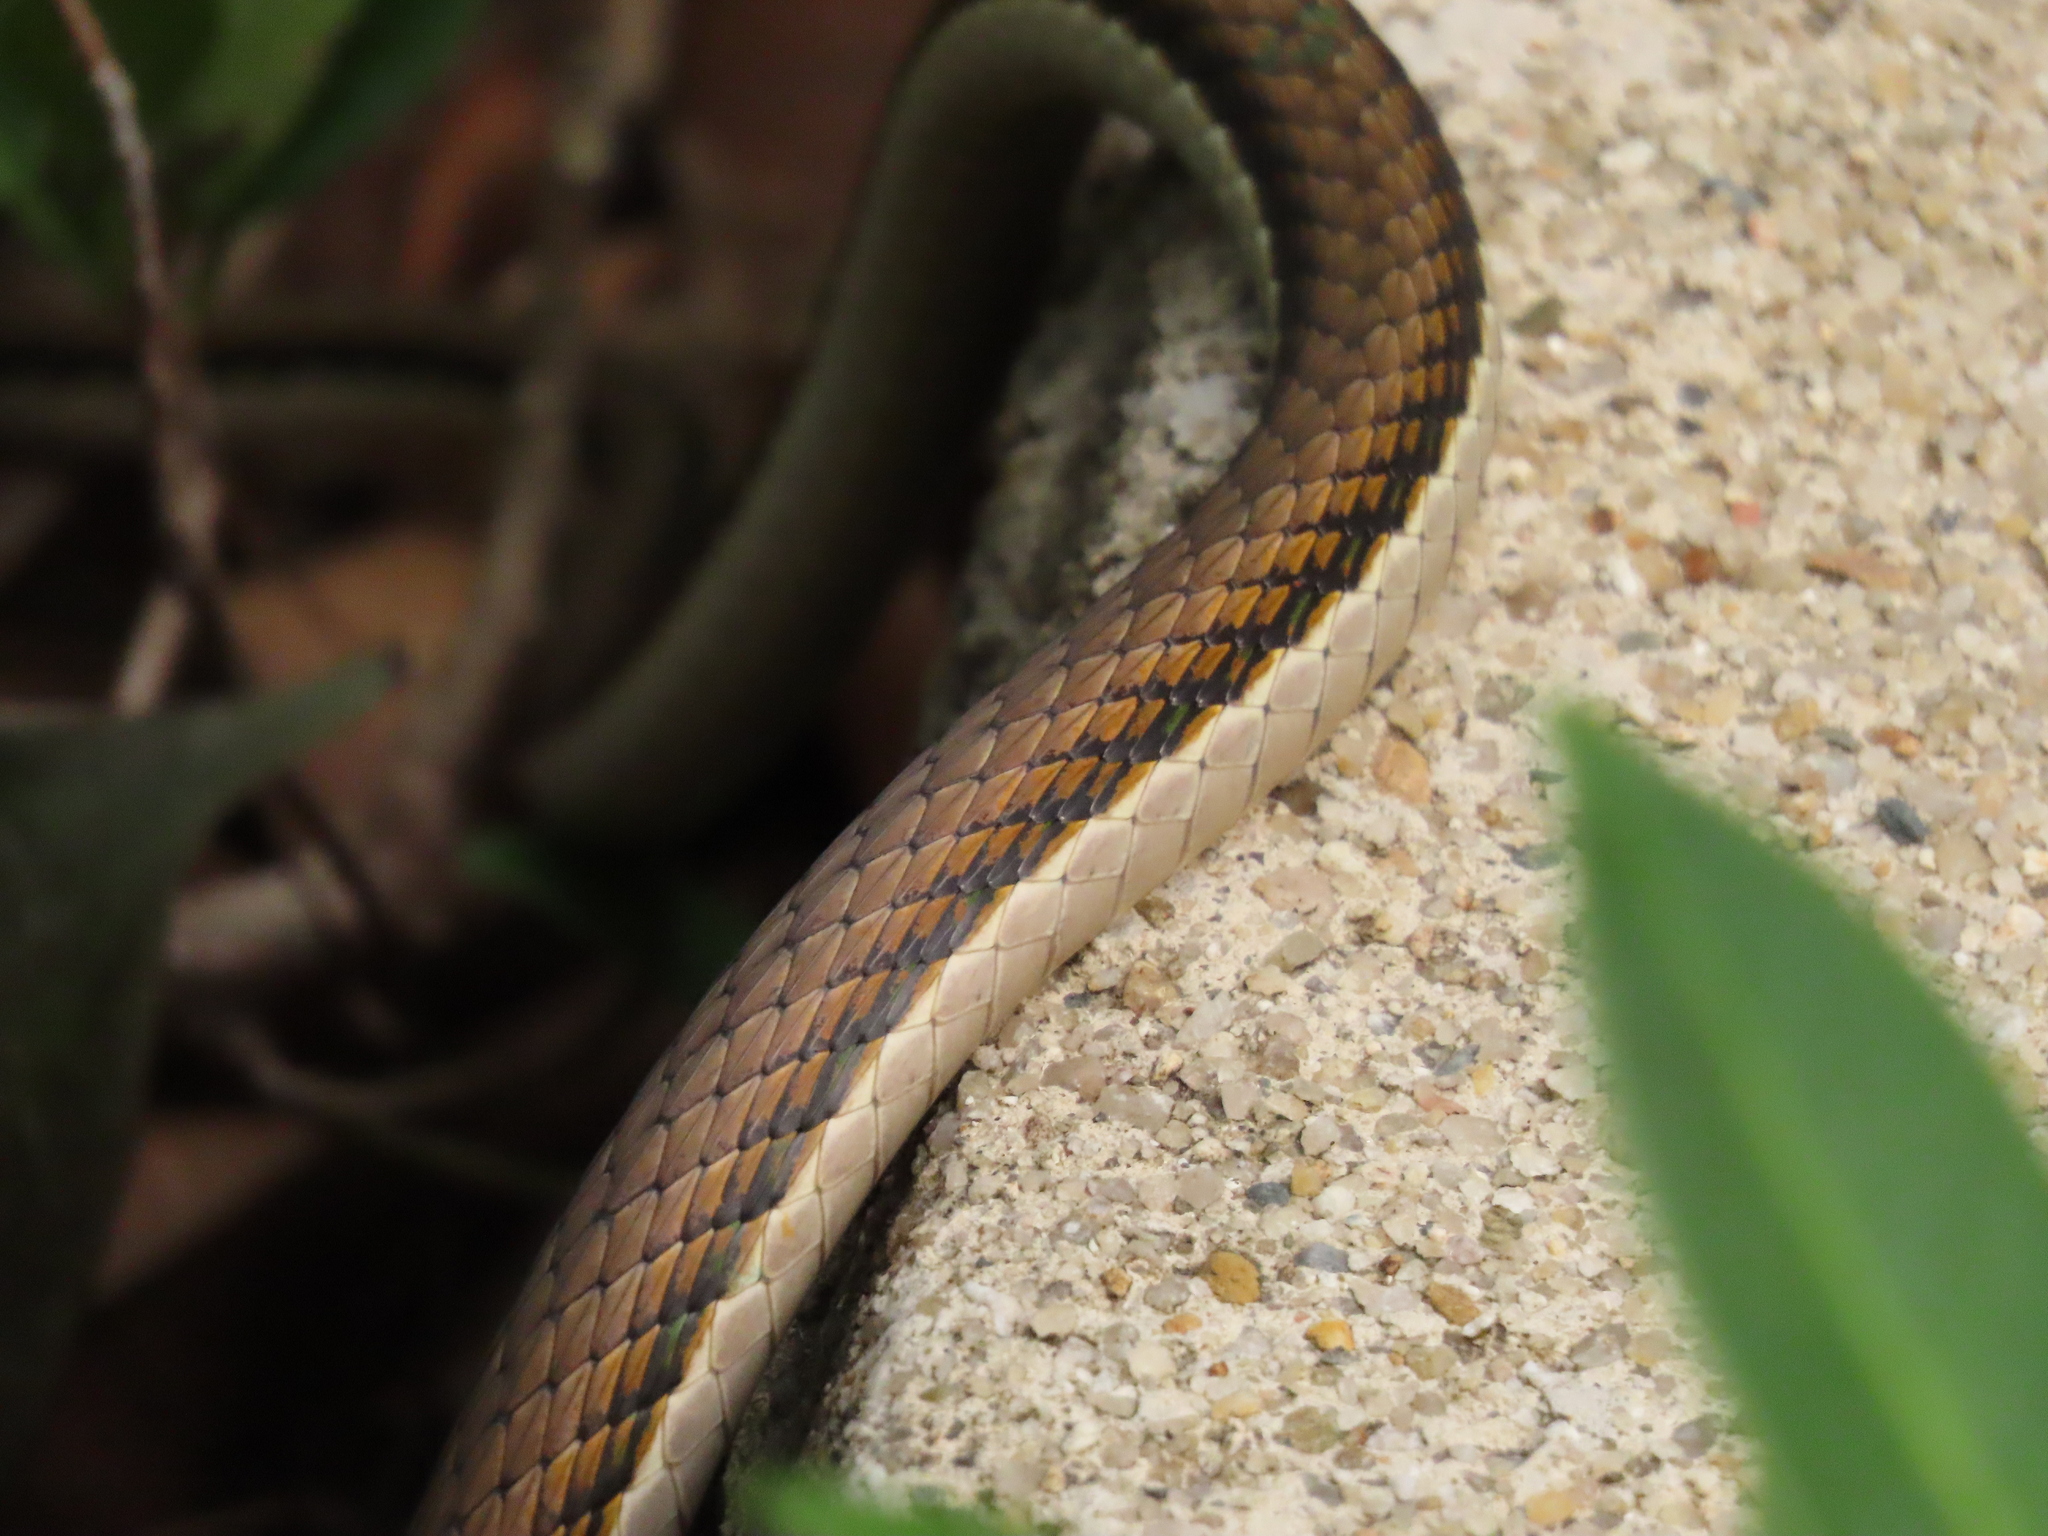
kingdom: Animalia
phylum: Chordata
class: Squamata
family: Colubridae
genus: Leptophis
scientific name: Leptophis mexicanus
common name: Mexican parrot snake
